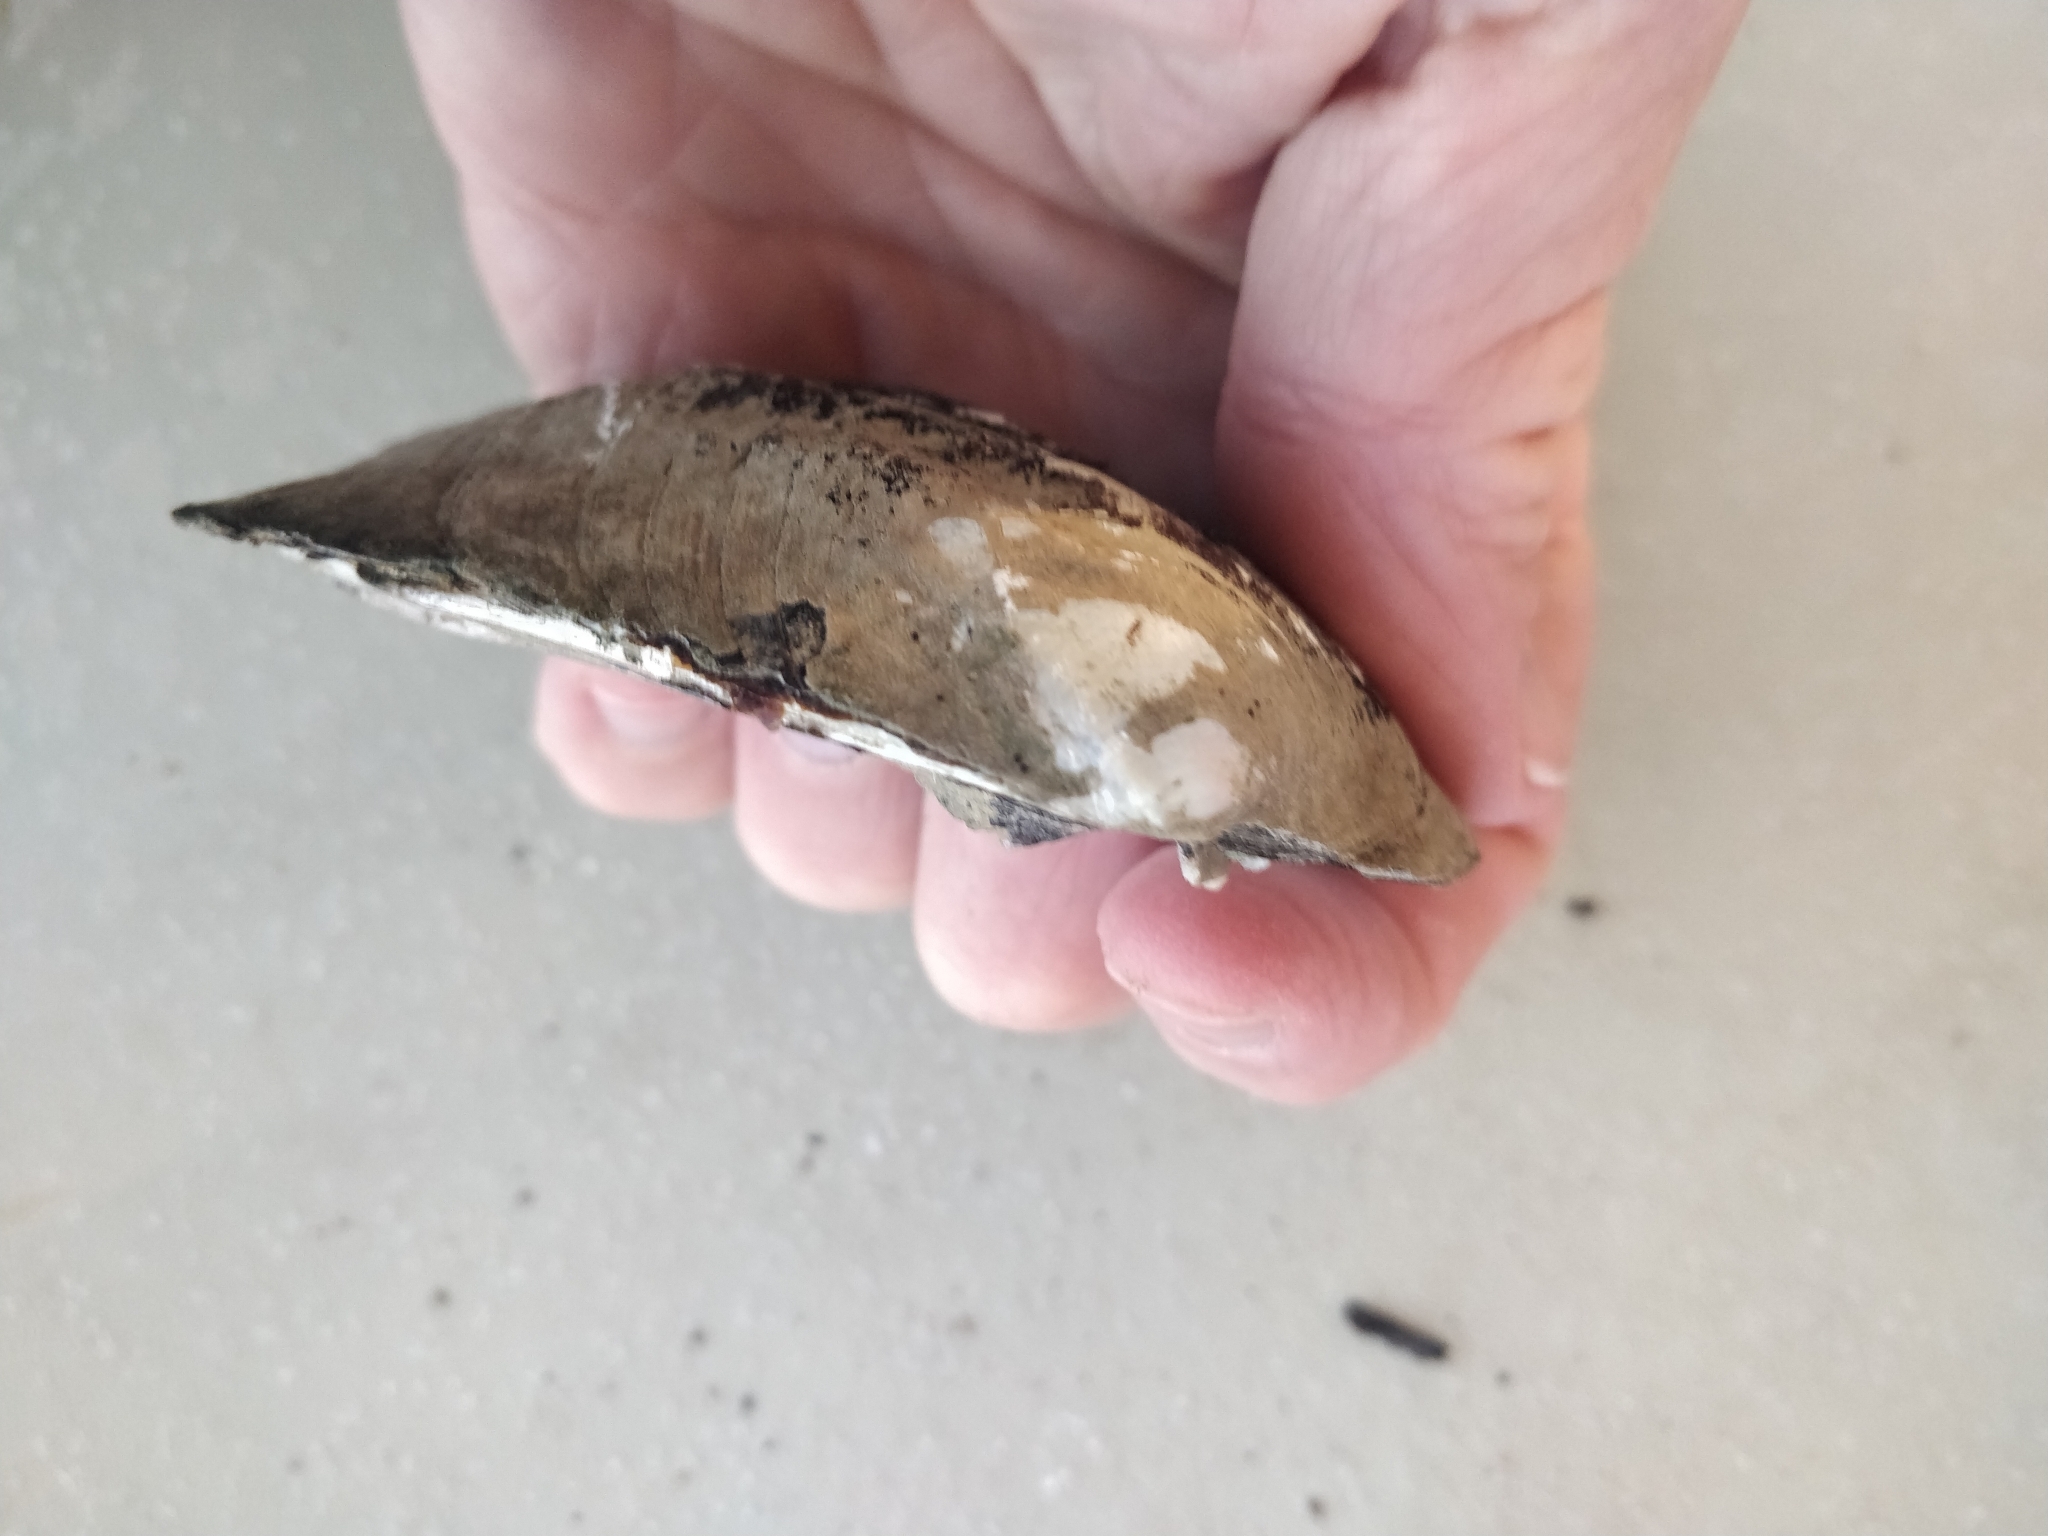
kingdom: Animalia
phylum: Mollusca
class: Bivalvia
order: Unionida
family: Unionidae
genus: Amblema
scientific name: Amblema plicata
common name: Threeridge
